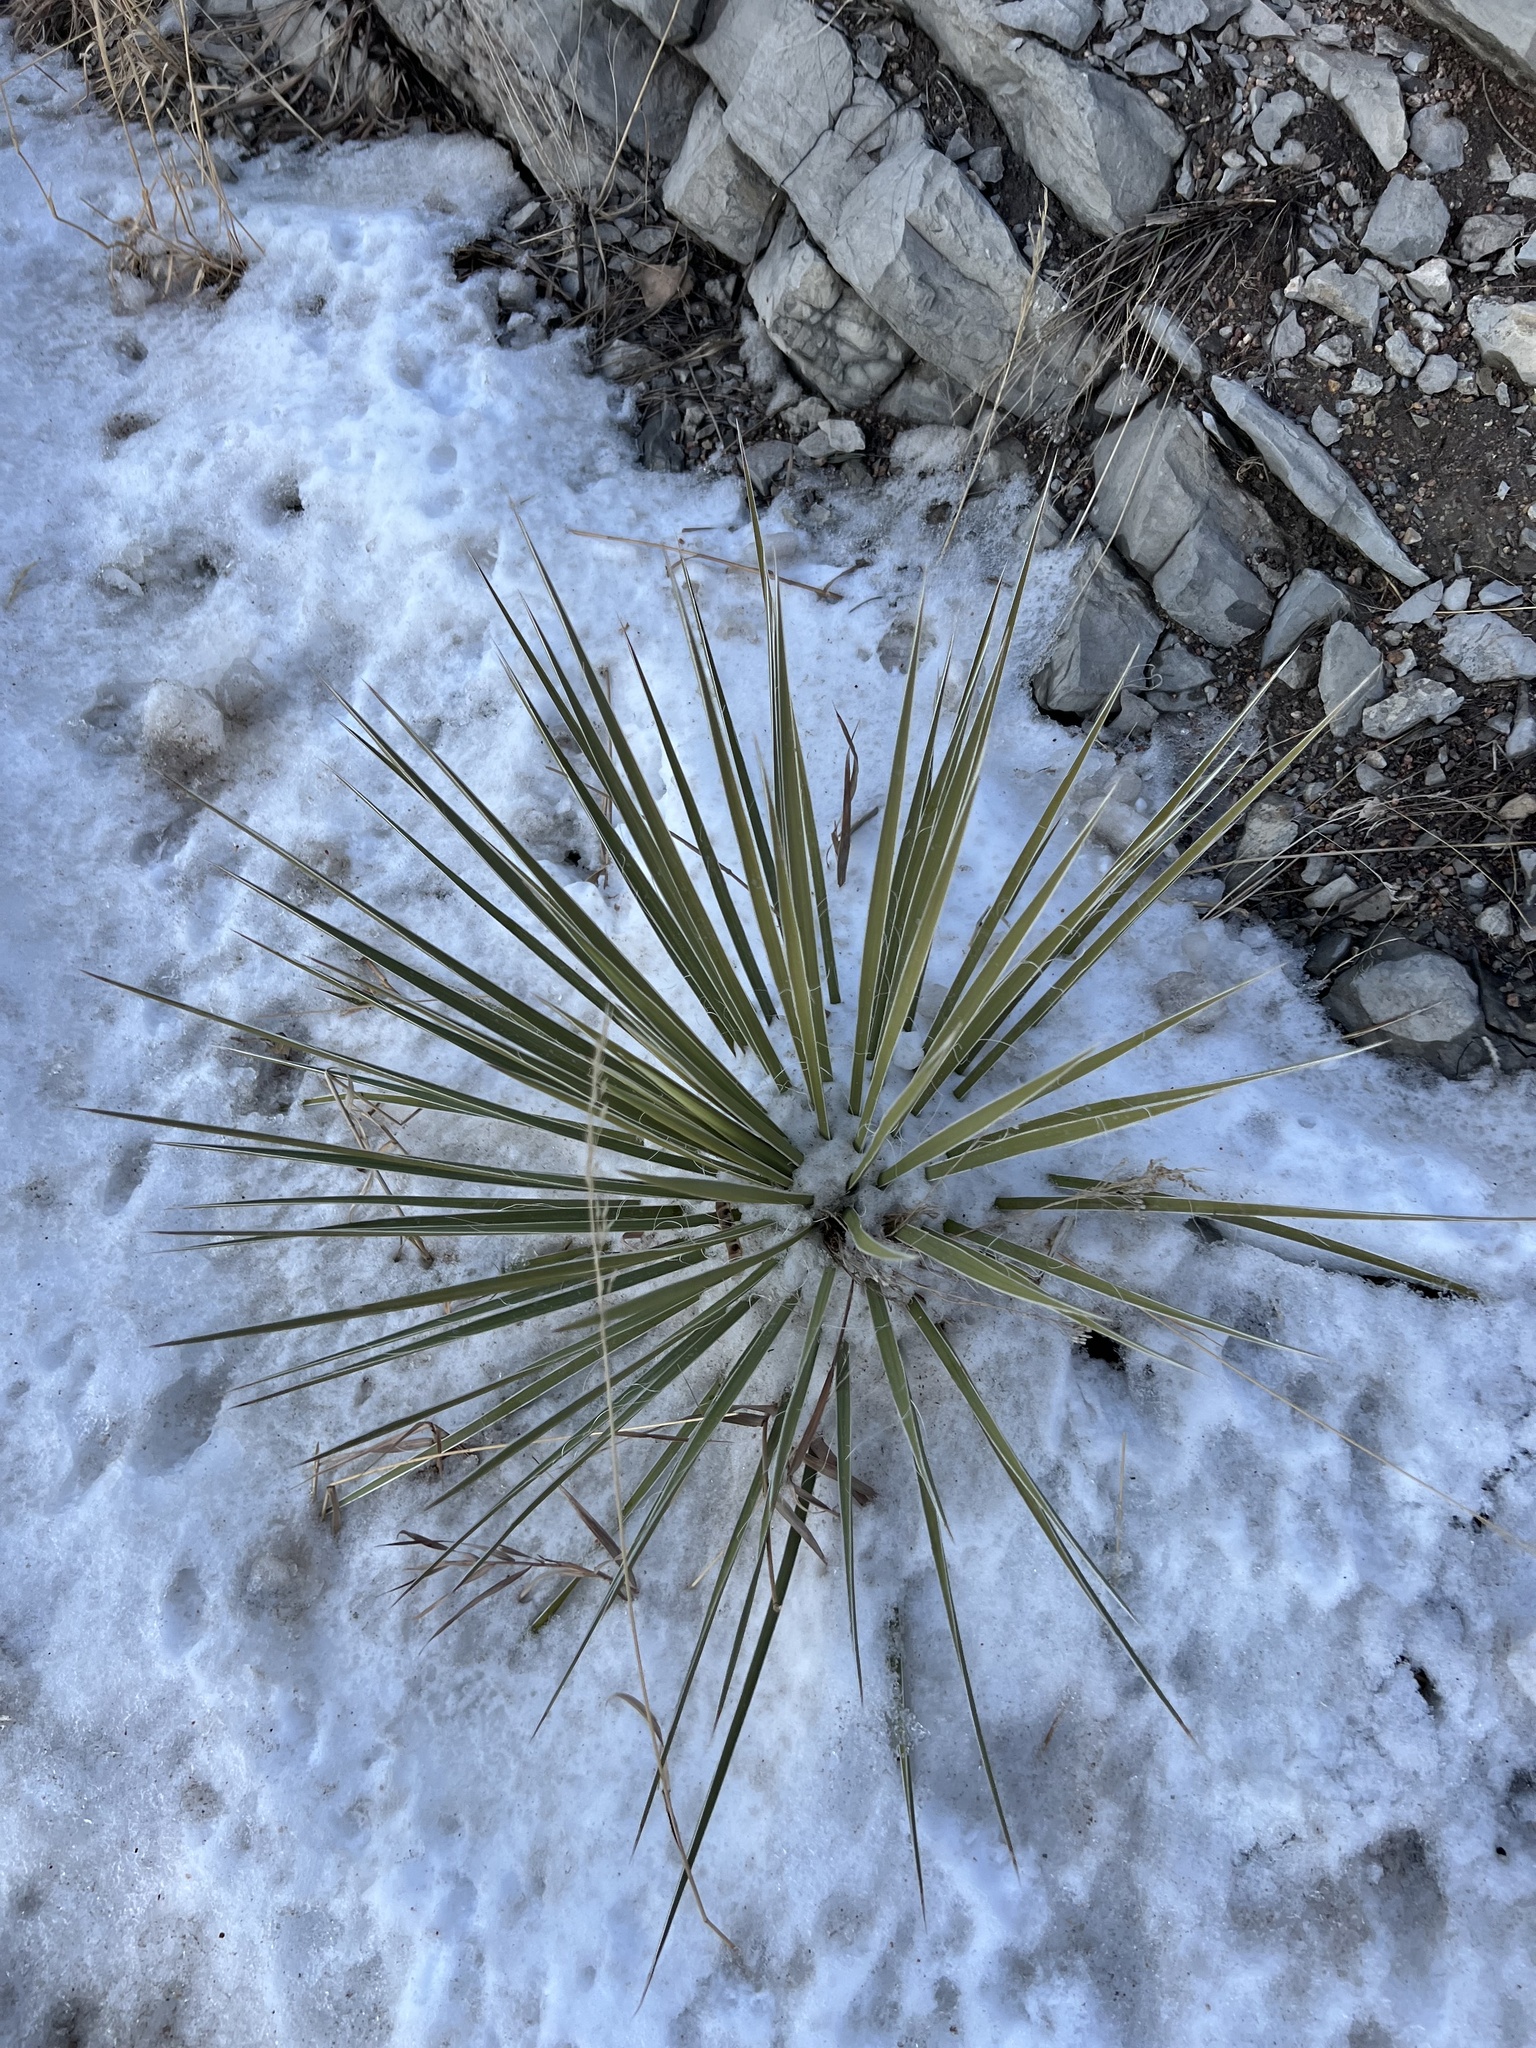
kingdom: Plantae
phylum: Tracheophyta
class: Liliopsida
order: Asparagales
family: Asparagaceae
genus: Yucca
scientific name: Yucca glauca
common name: Great plains yucca
